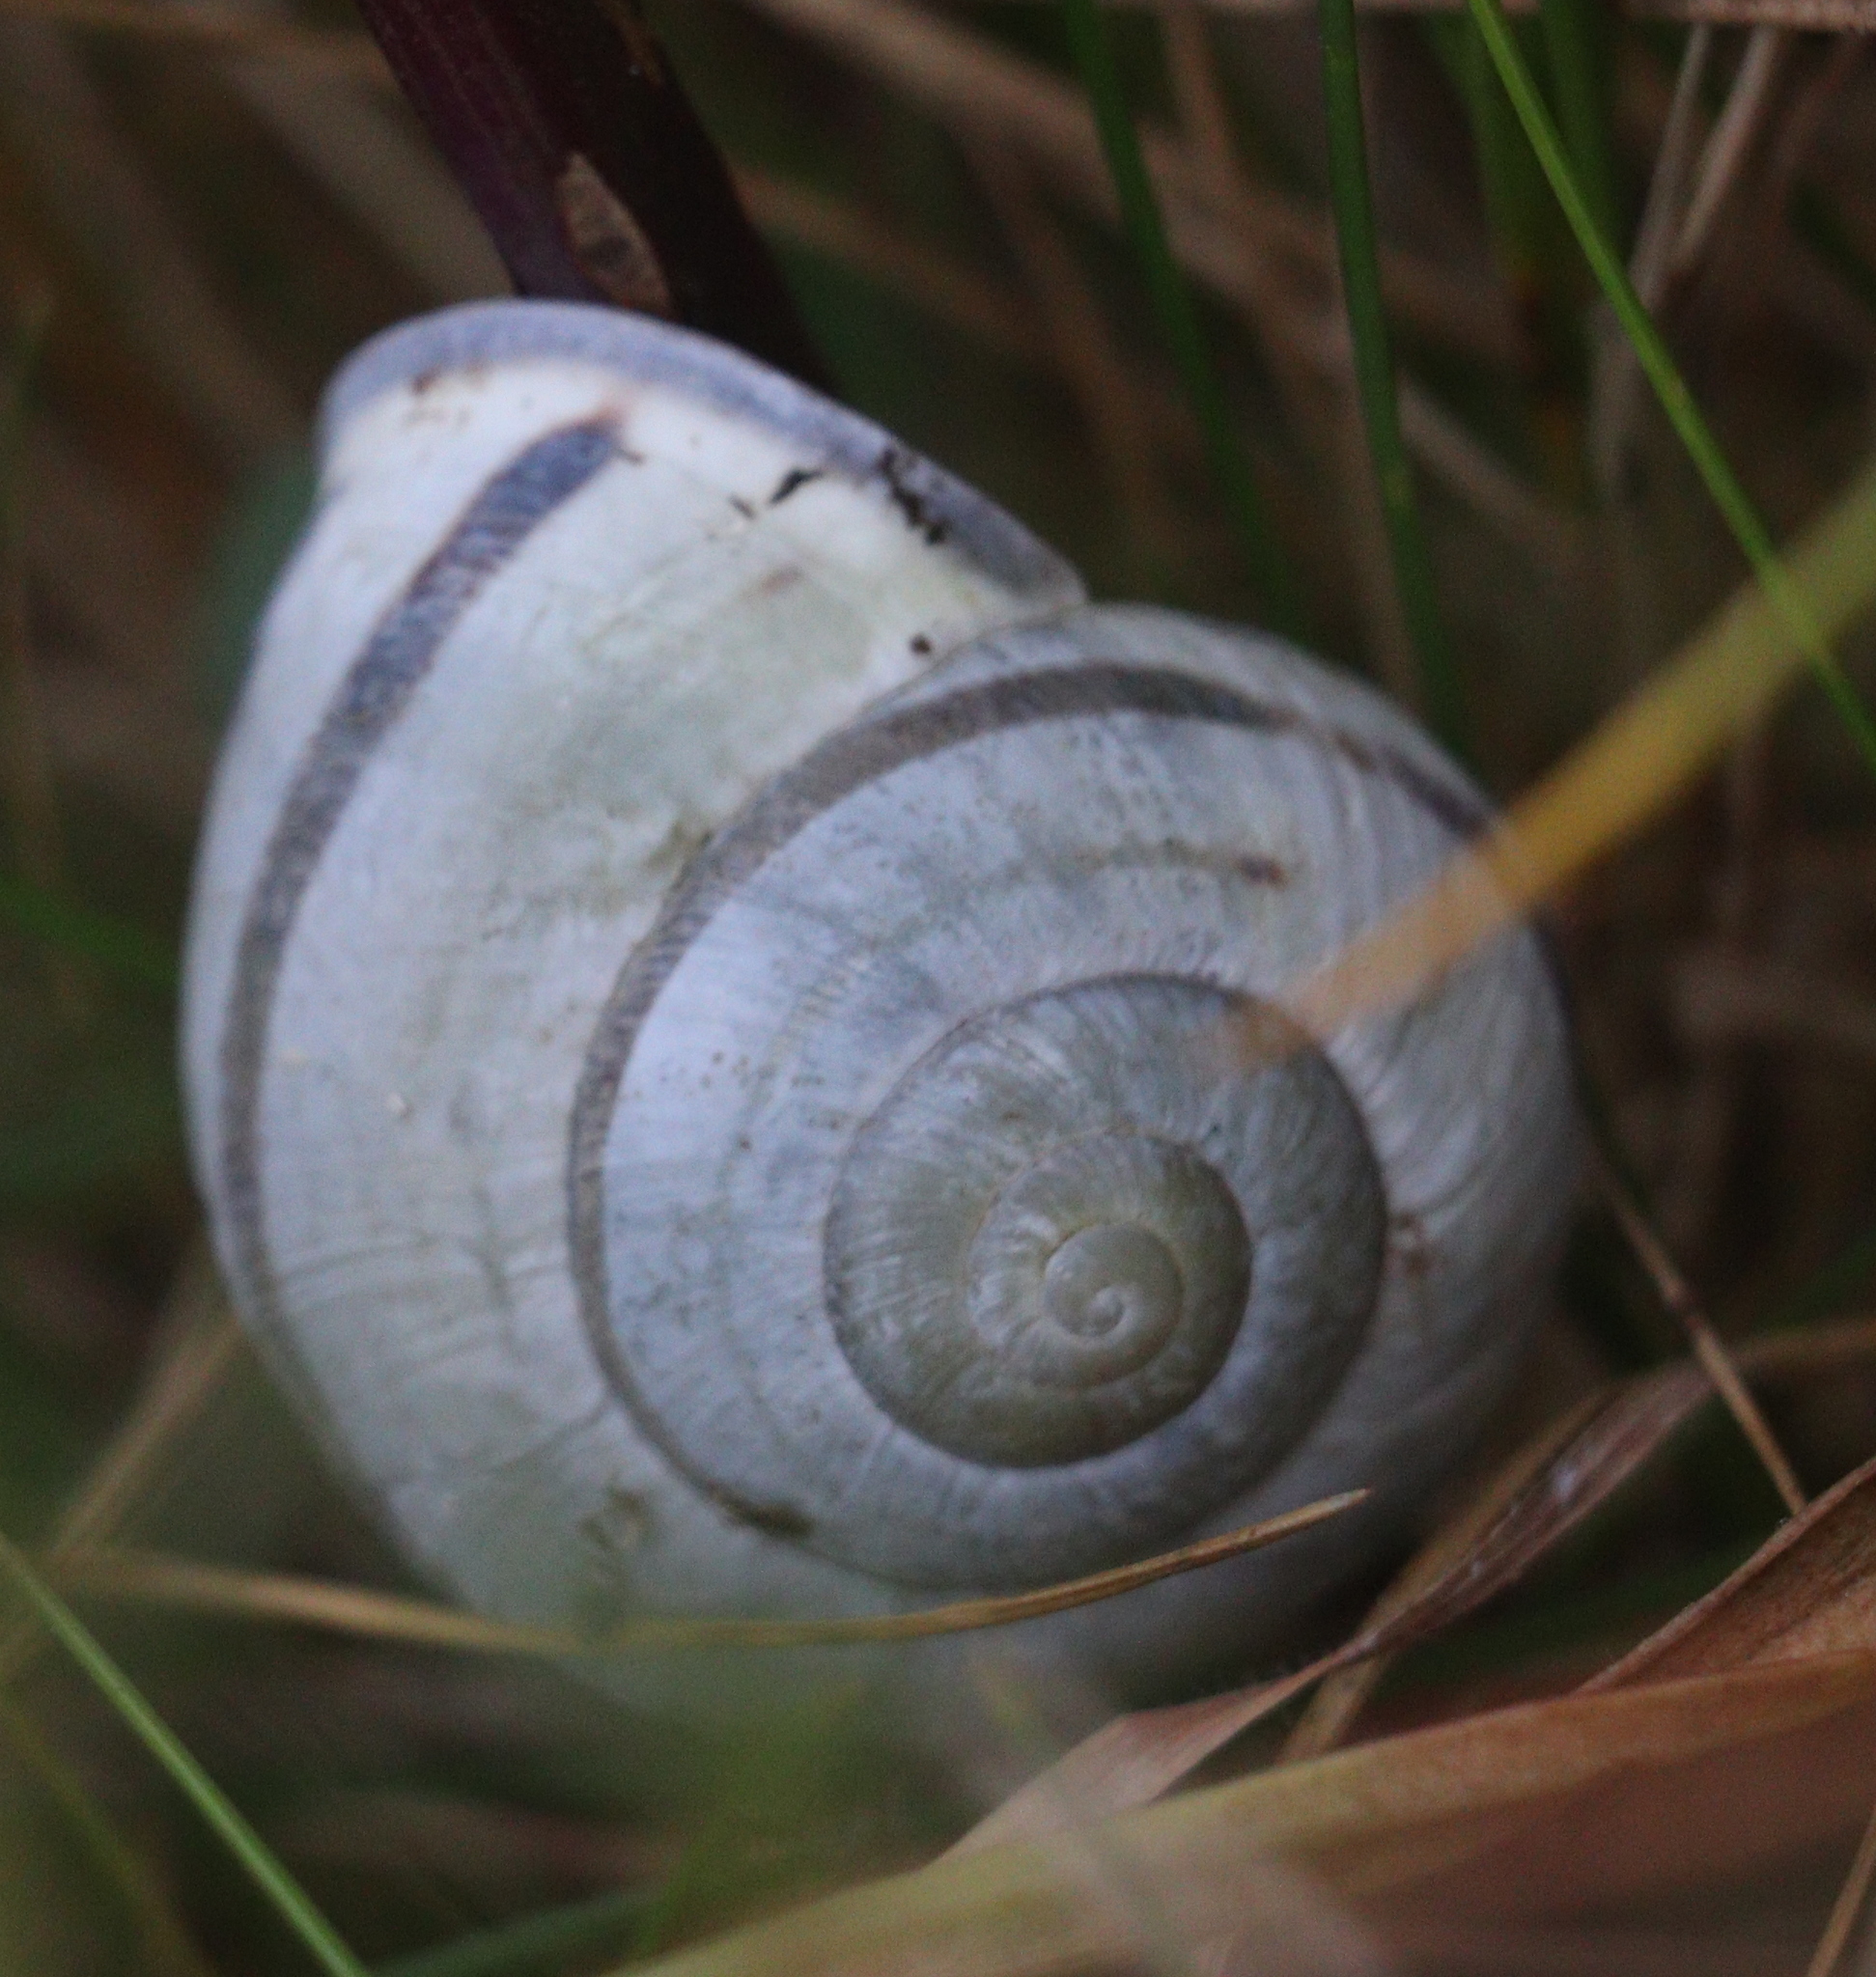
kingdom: Animalia
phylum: Mollusca
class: Gastropoda
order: Stylommatophora
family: Helicidae
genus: Cepaea
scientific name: Cepaea nemoralis
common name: Grovesnail
